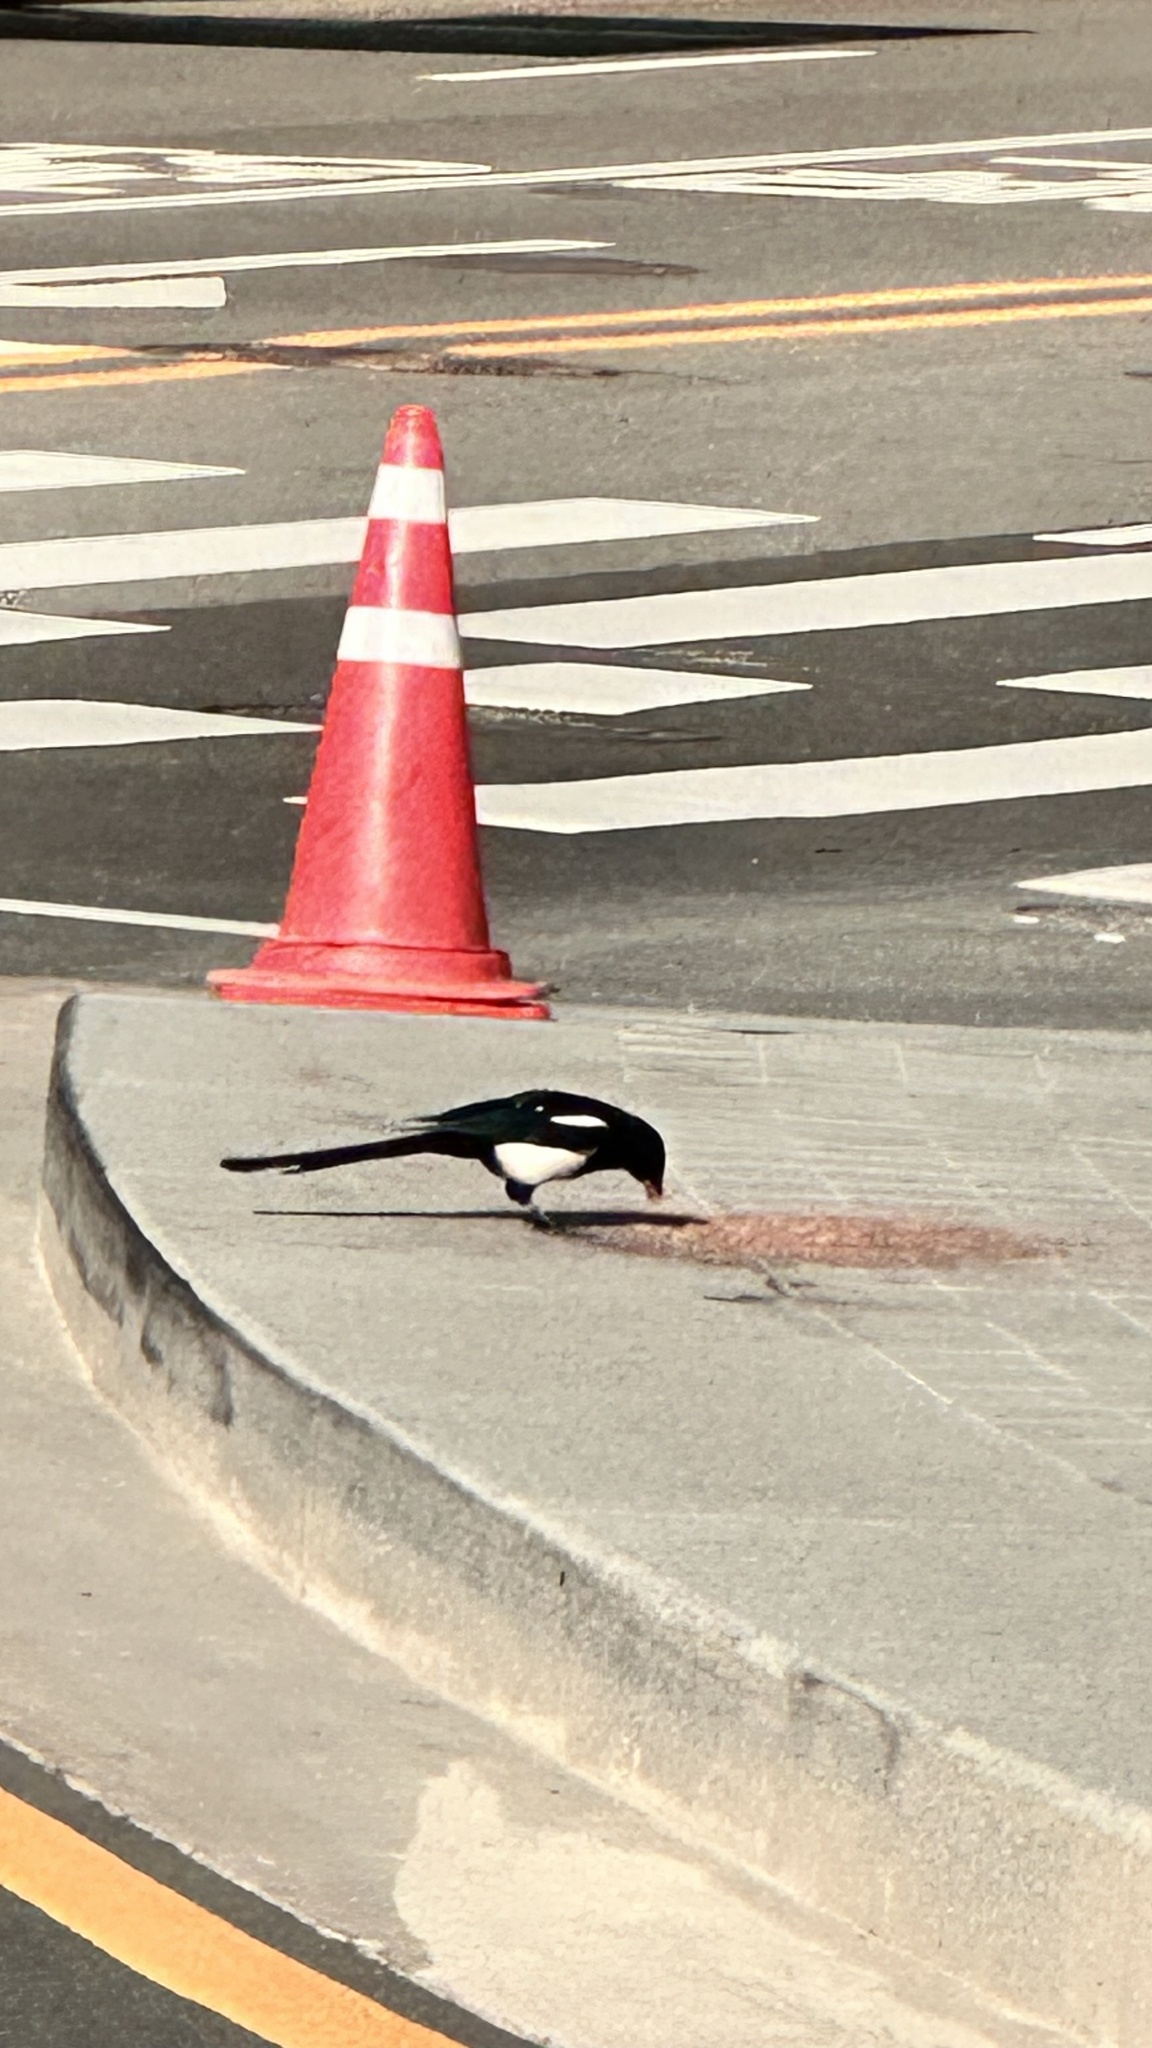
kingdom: Animalia
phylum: Chordata
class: Aves
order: Passeriformes
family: Corvidae
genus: Pica
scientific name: Pica serica
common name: Oriental magpie
